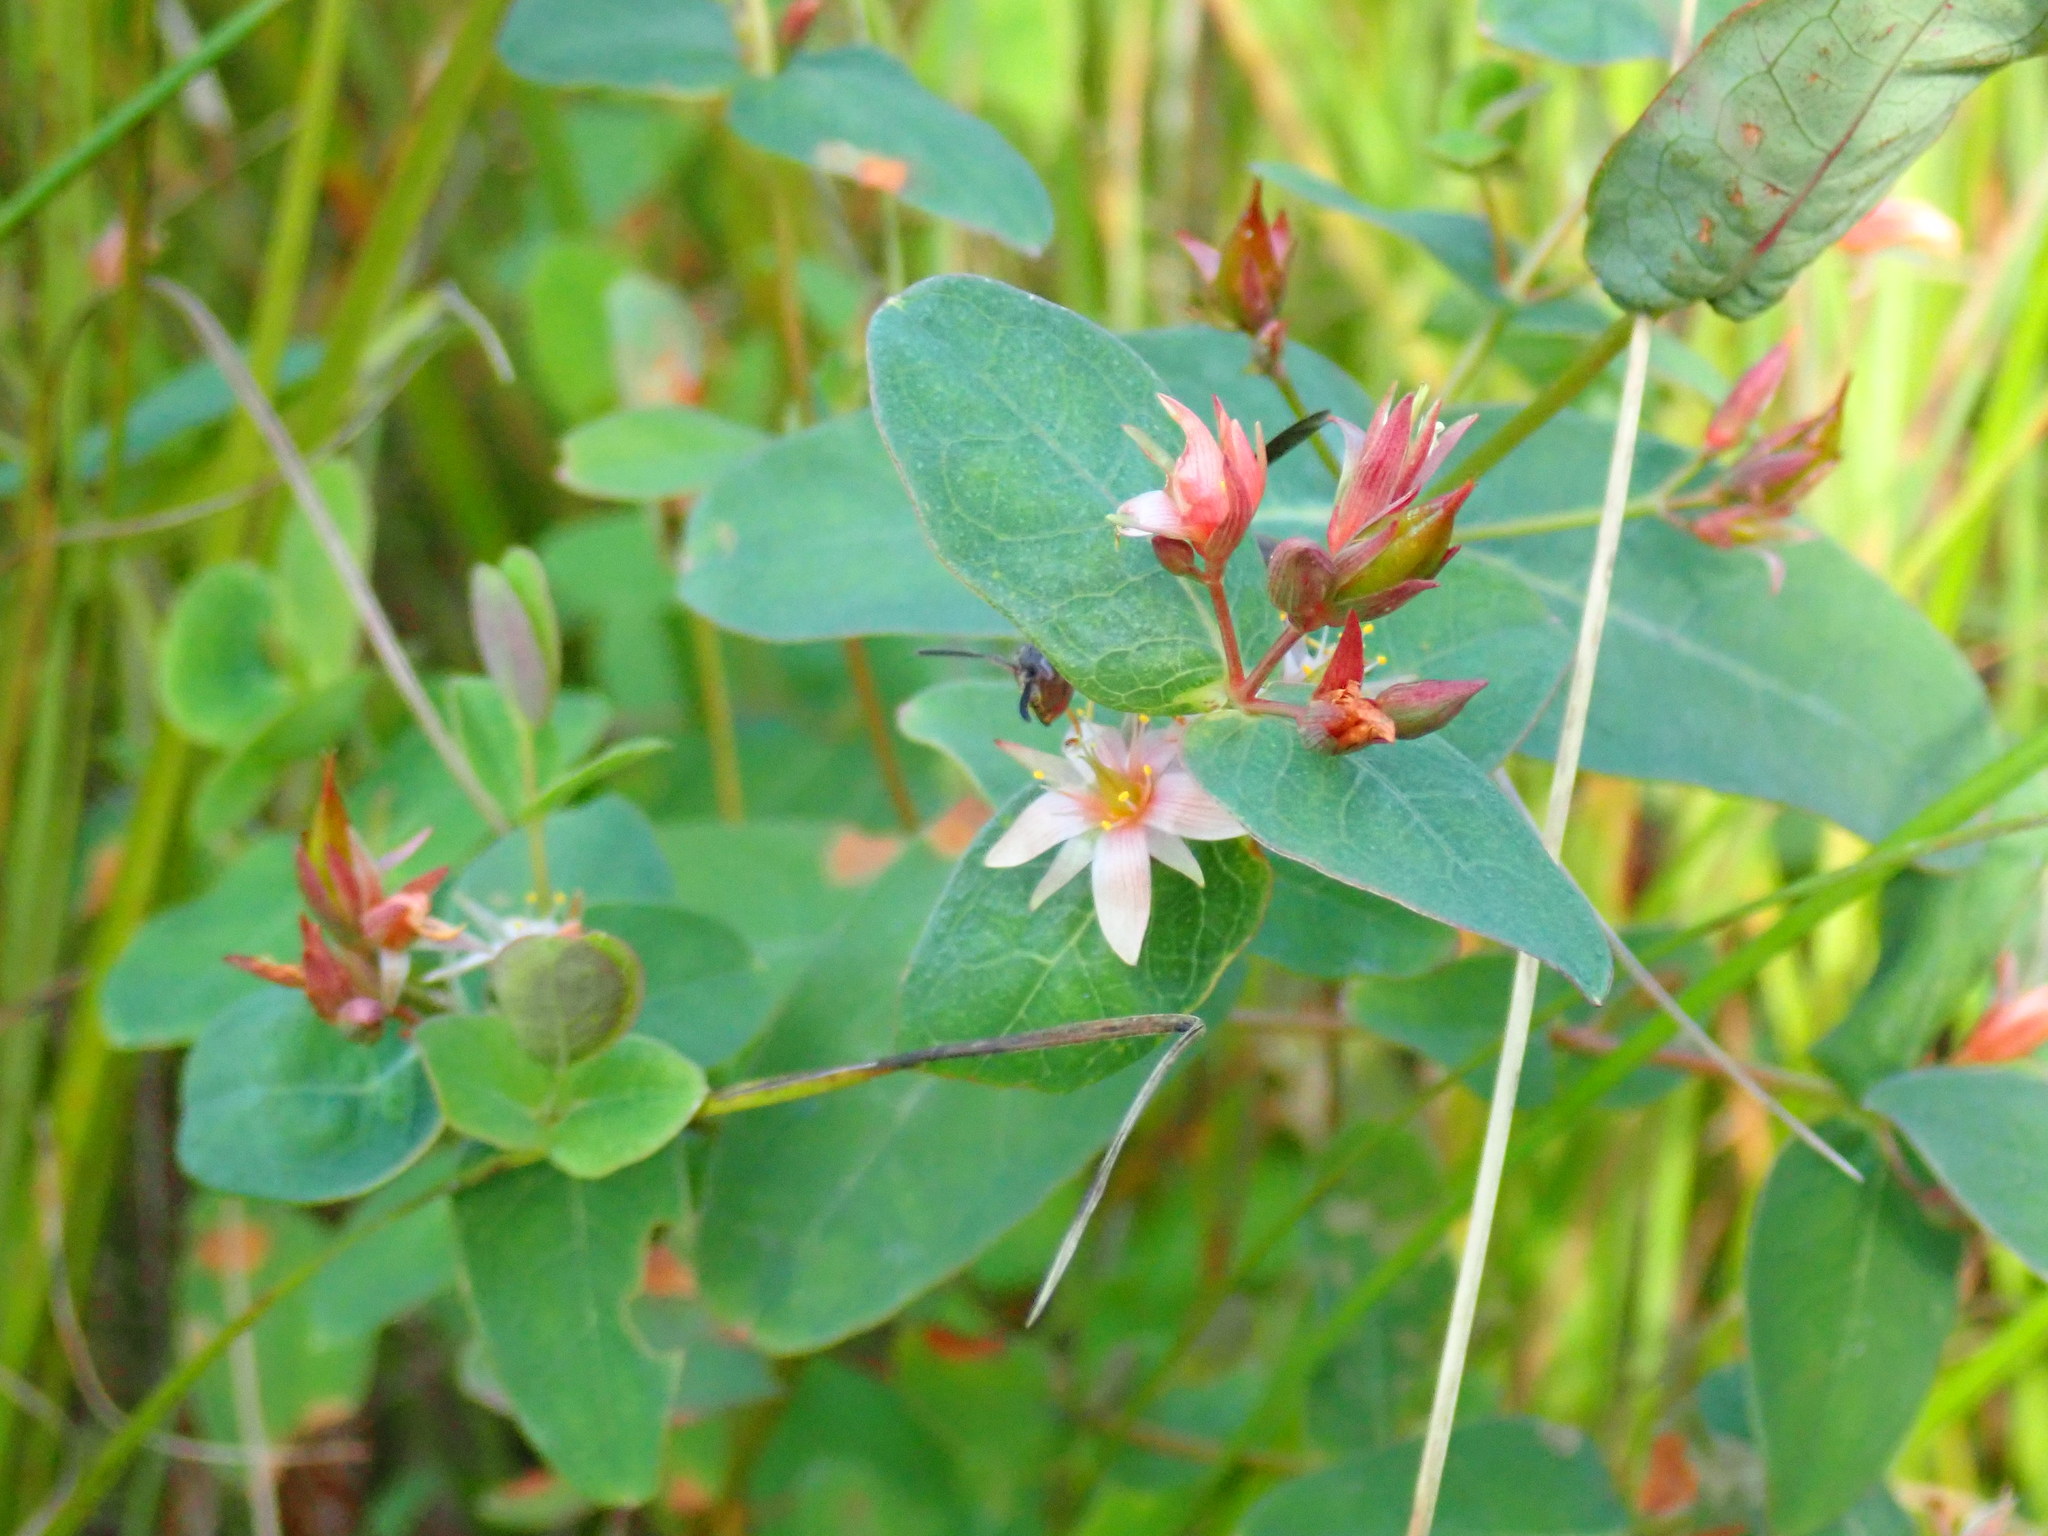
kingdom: Plantae
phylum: Tracheophyta
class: Magnoliopsida
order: Malpighiales
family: Hypericaceae
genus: Triadenum
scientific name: Triadenum virginicum
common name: Marsh st. john's-wort
